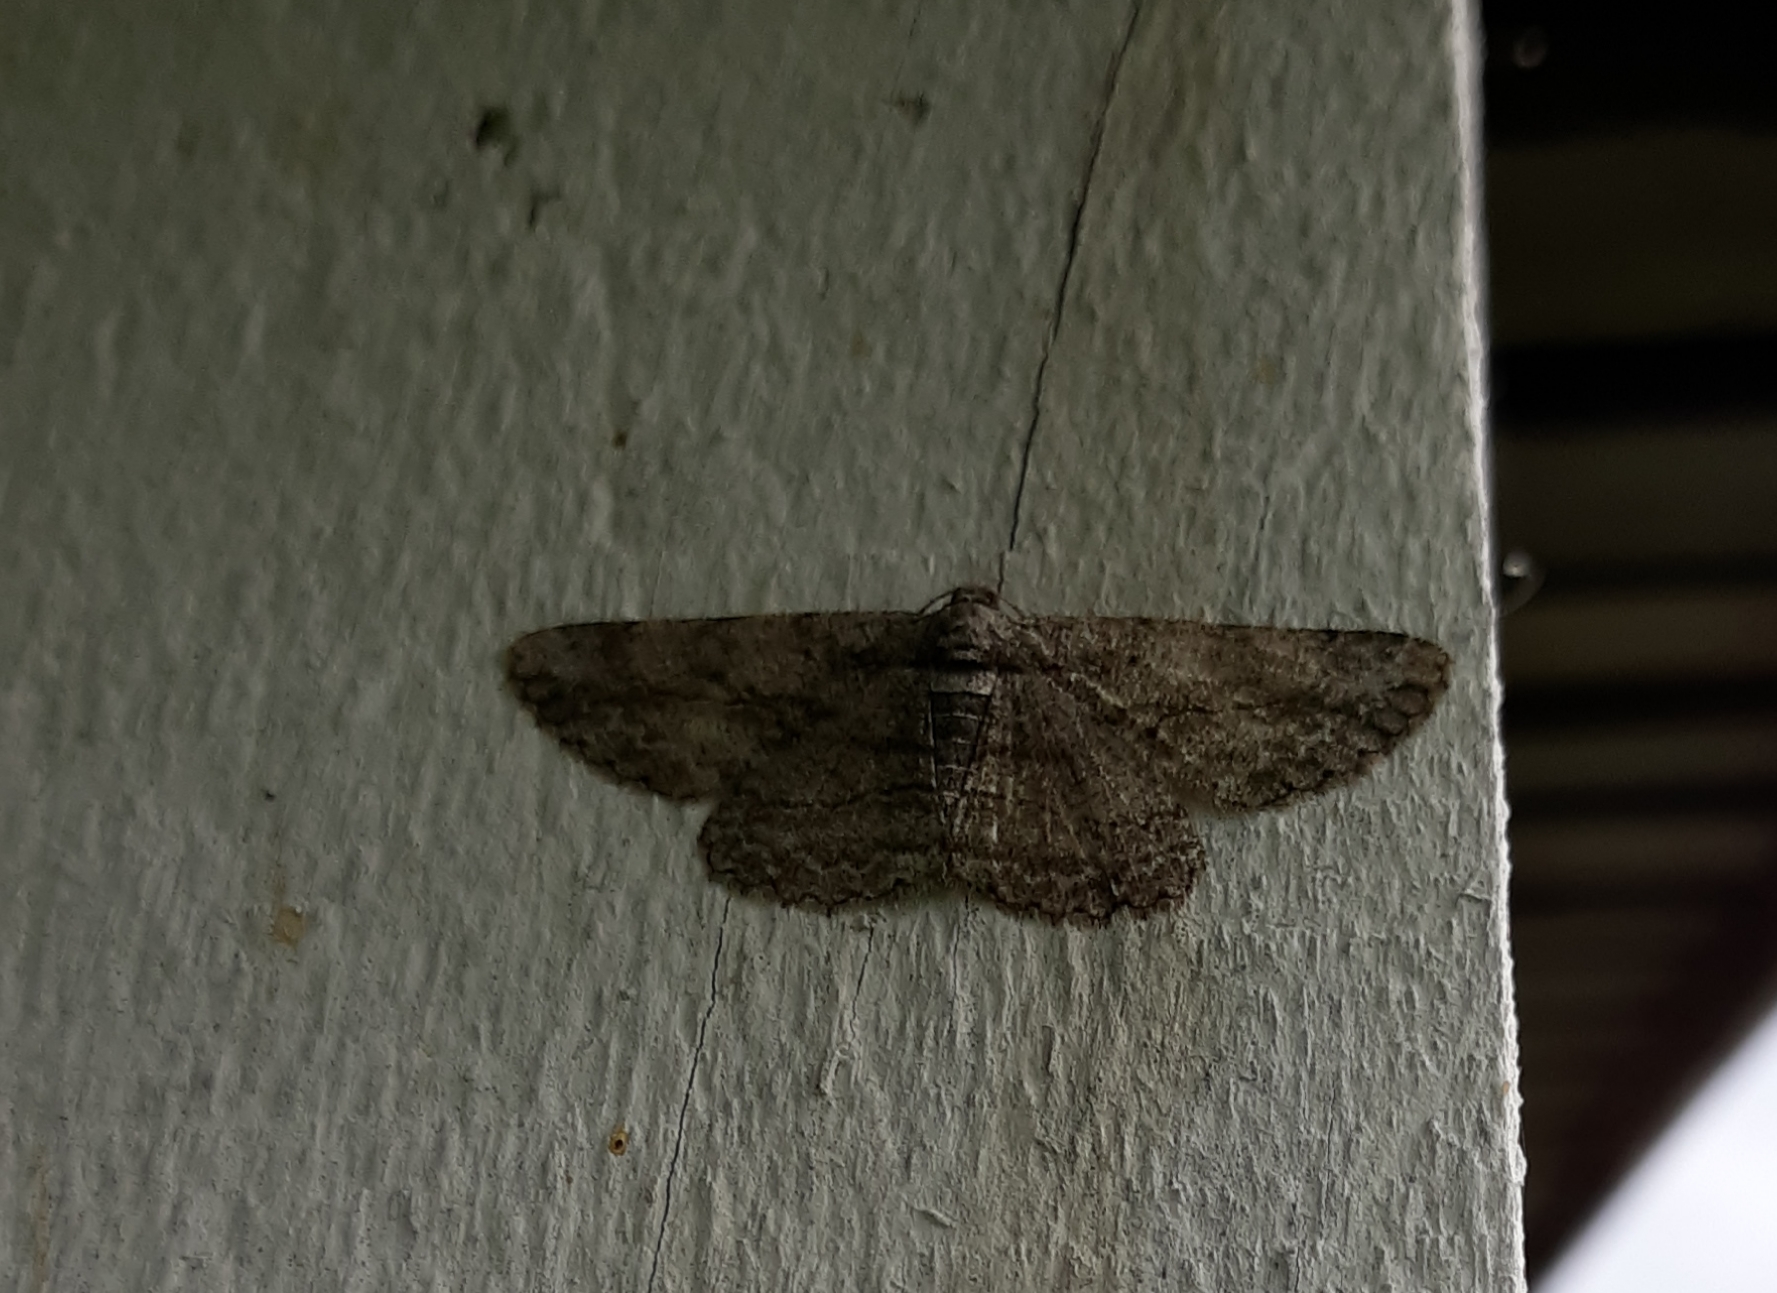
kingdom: Animalia
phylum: Arthropoda
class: Insecta
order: Lepidoptera
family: Geometridae
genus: Anavitrinella
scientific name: Anavitrinella pampinaria
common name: Common gray
